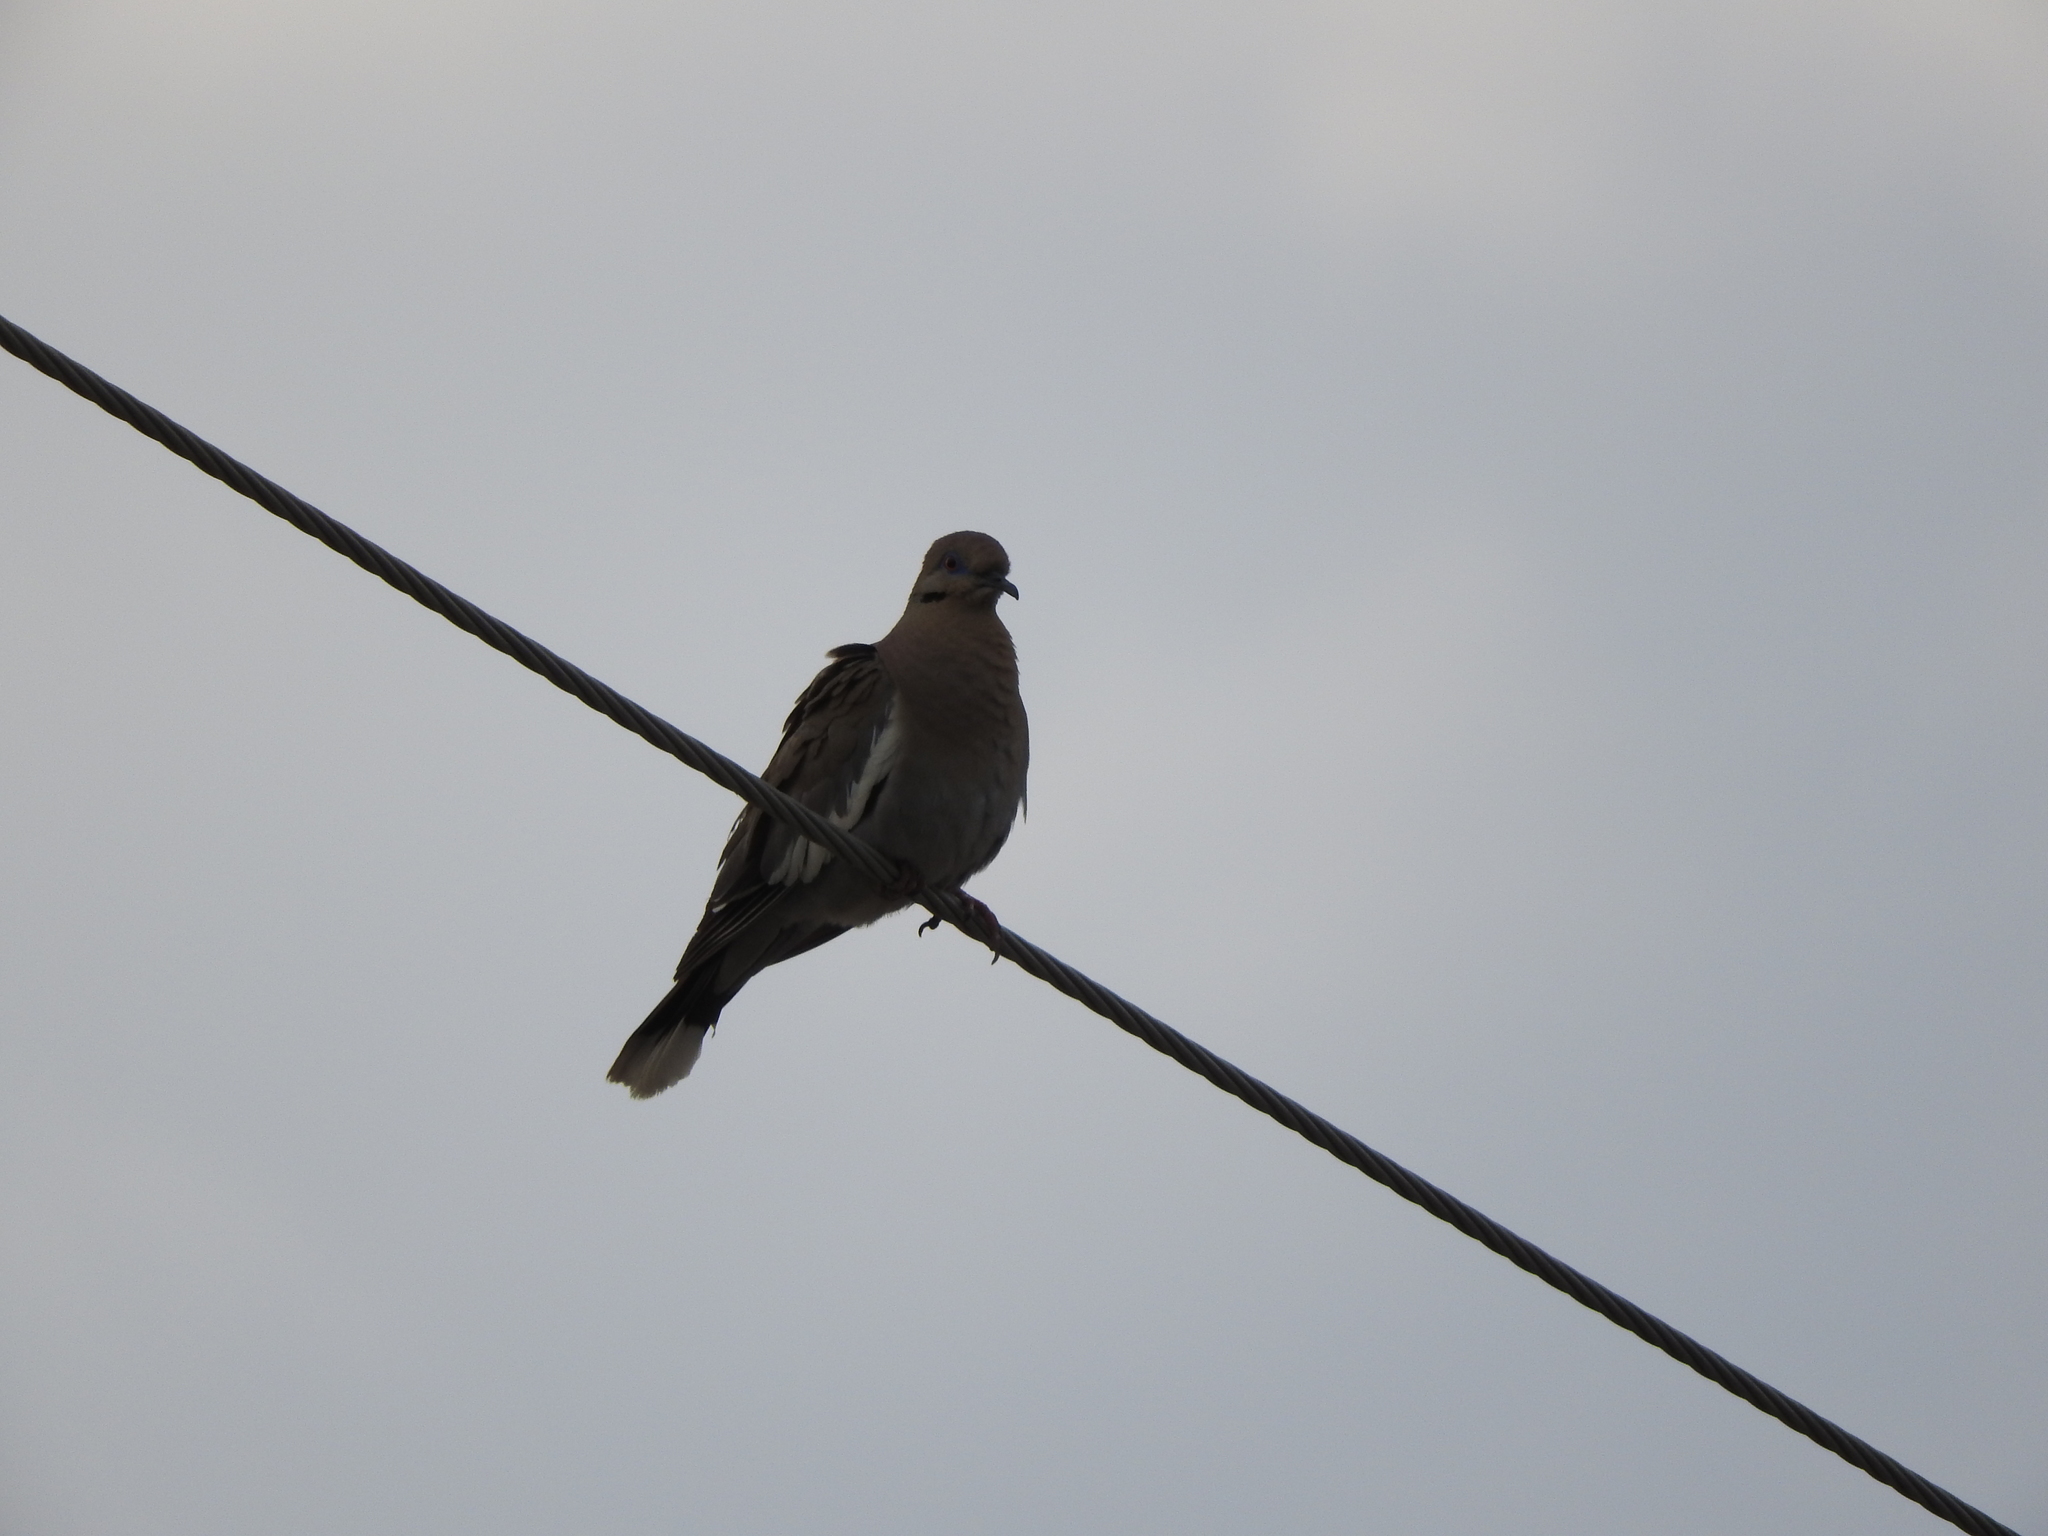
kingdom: Animalia
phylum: Chordata
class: Aves
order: Columbiformes
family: Columbidae
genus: Zenaida
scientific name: Zenaida asiatica
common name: White-winged dove
